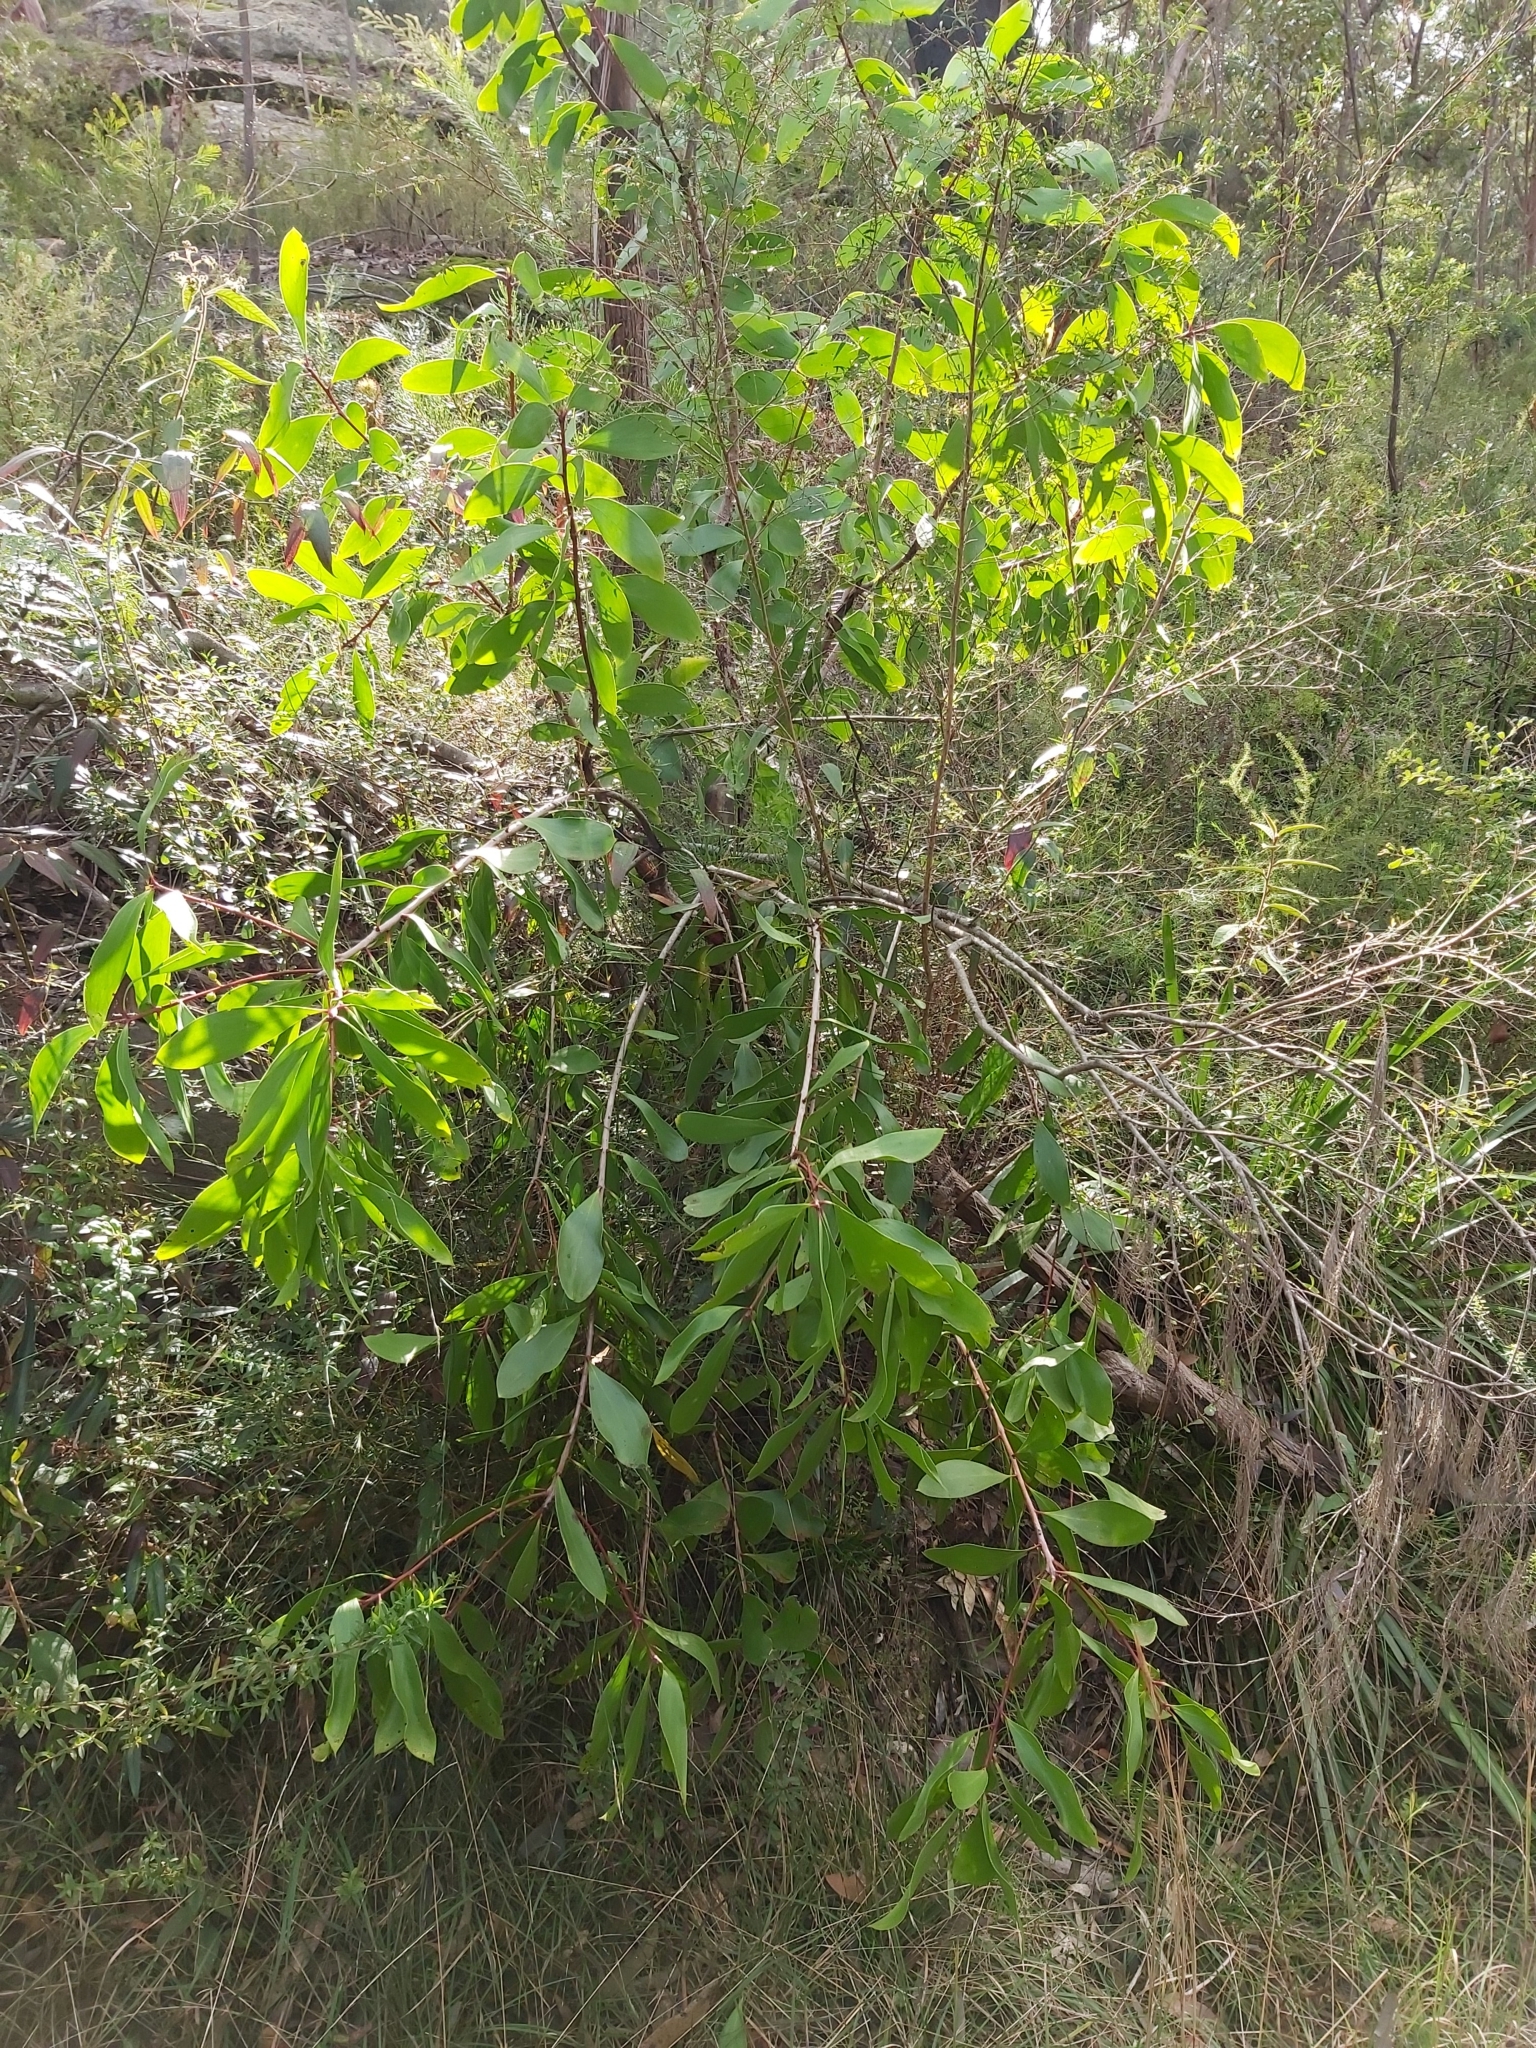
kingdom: Plantae
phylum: Tracheophyta
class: Magnoliopsida
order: Proteales
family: Proteaceae
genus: Persoonia
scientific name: Persoonia levis
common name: Smooth geebung
